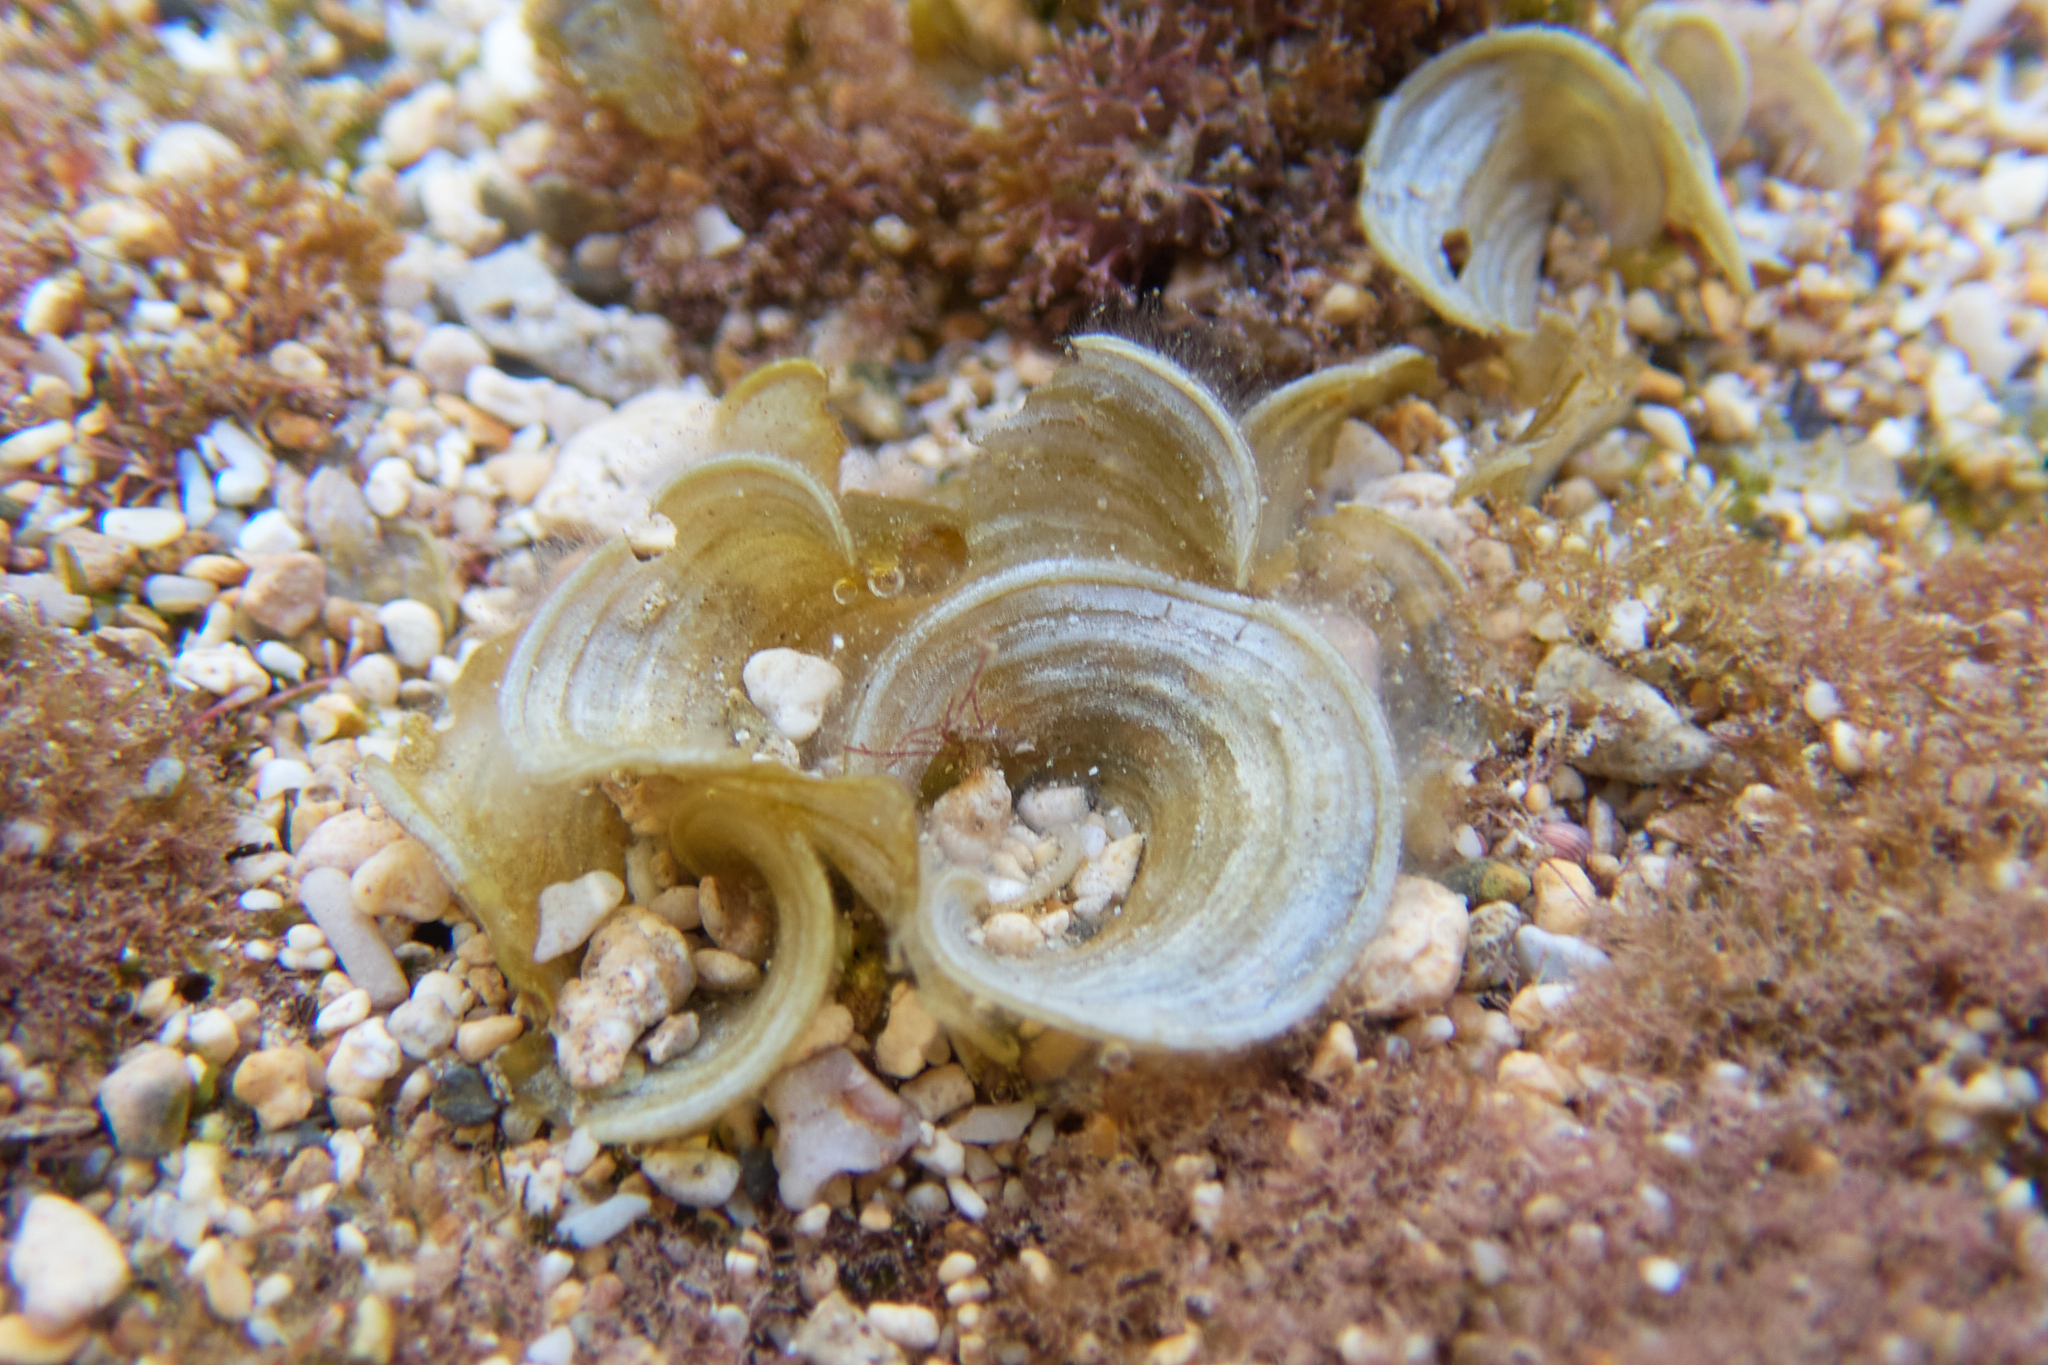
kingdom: Chromista
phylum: Ochrophyta
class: Phaeophyceae
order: Dictyotales
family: Dictyotaceae
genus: Padina
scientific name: Padina sanctae-crucis
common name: White scroll algae
